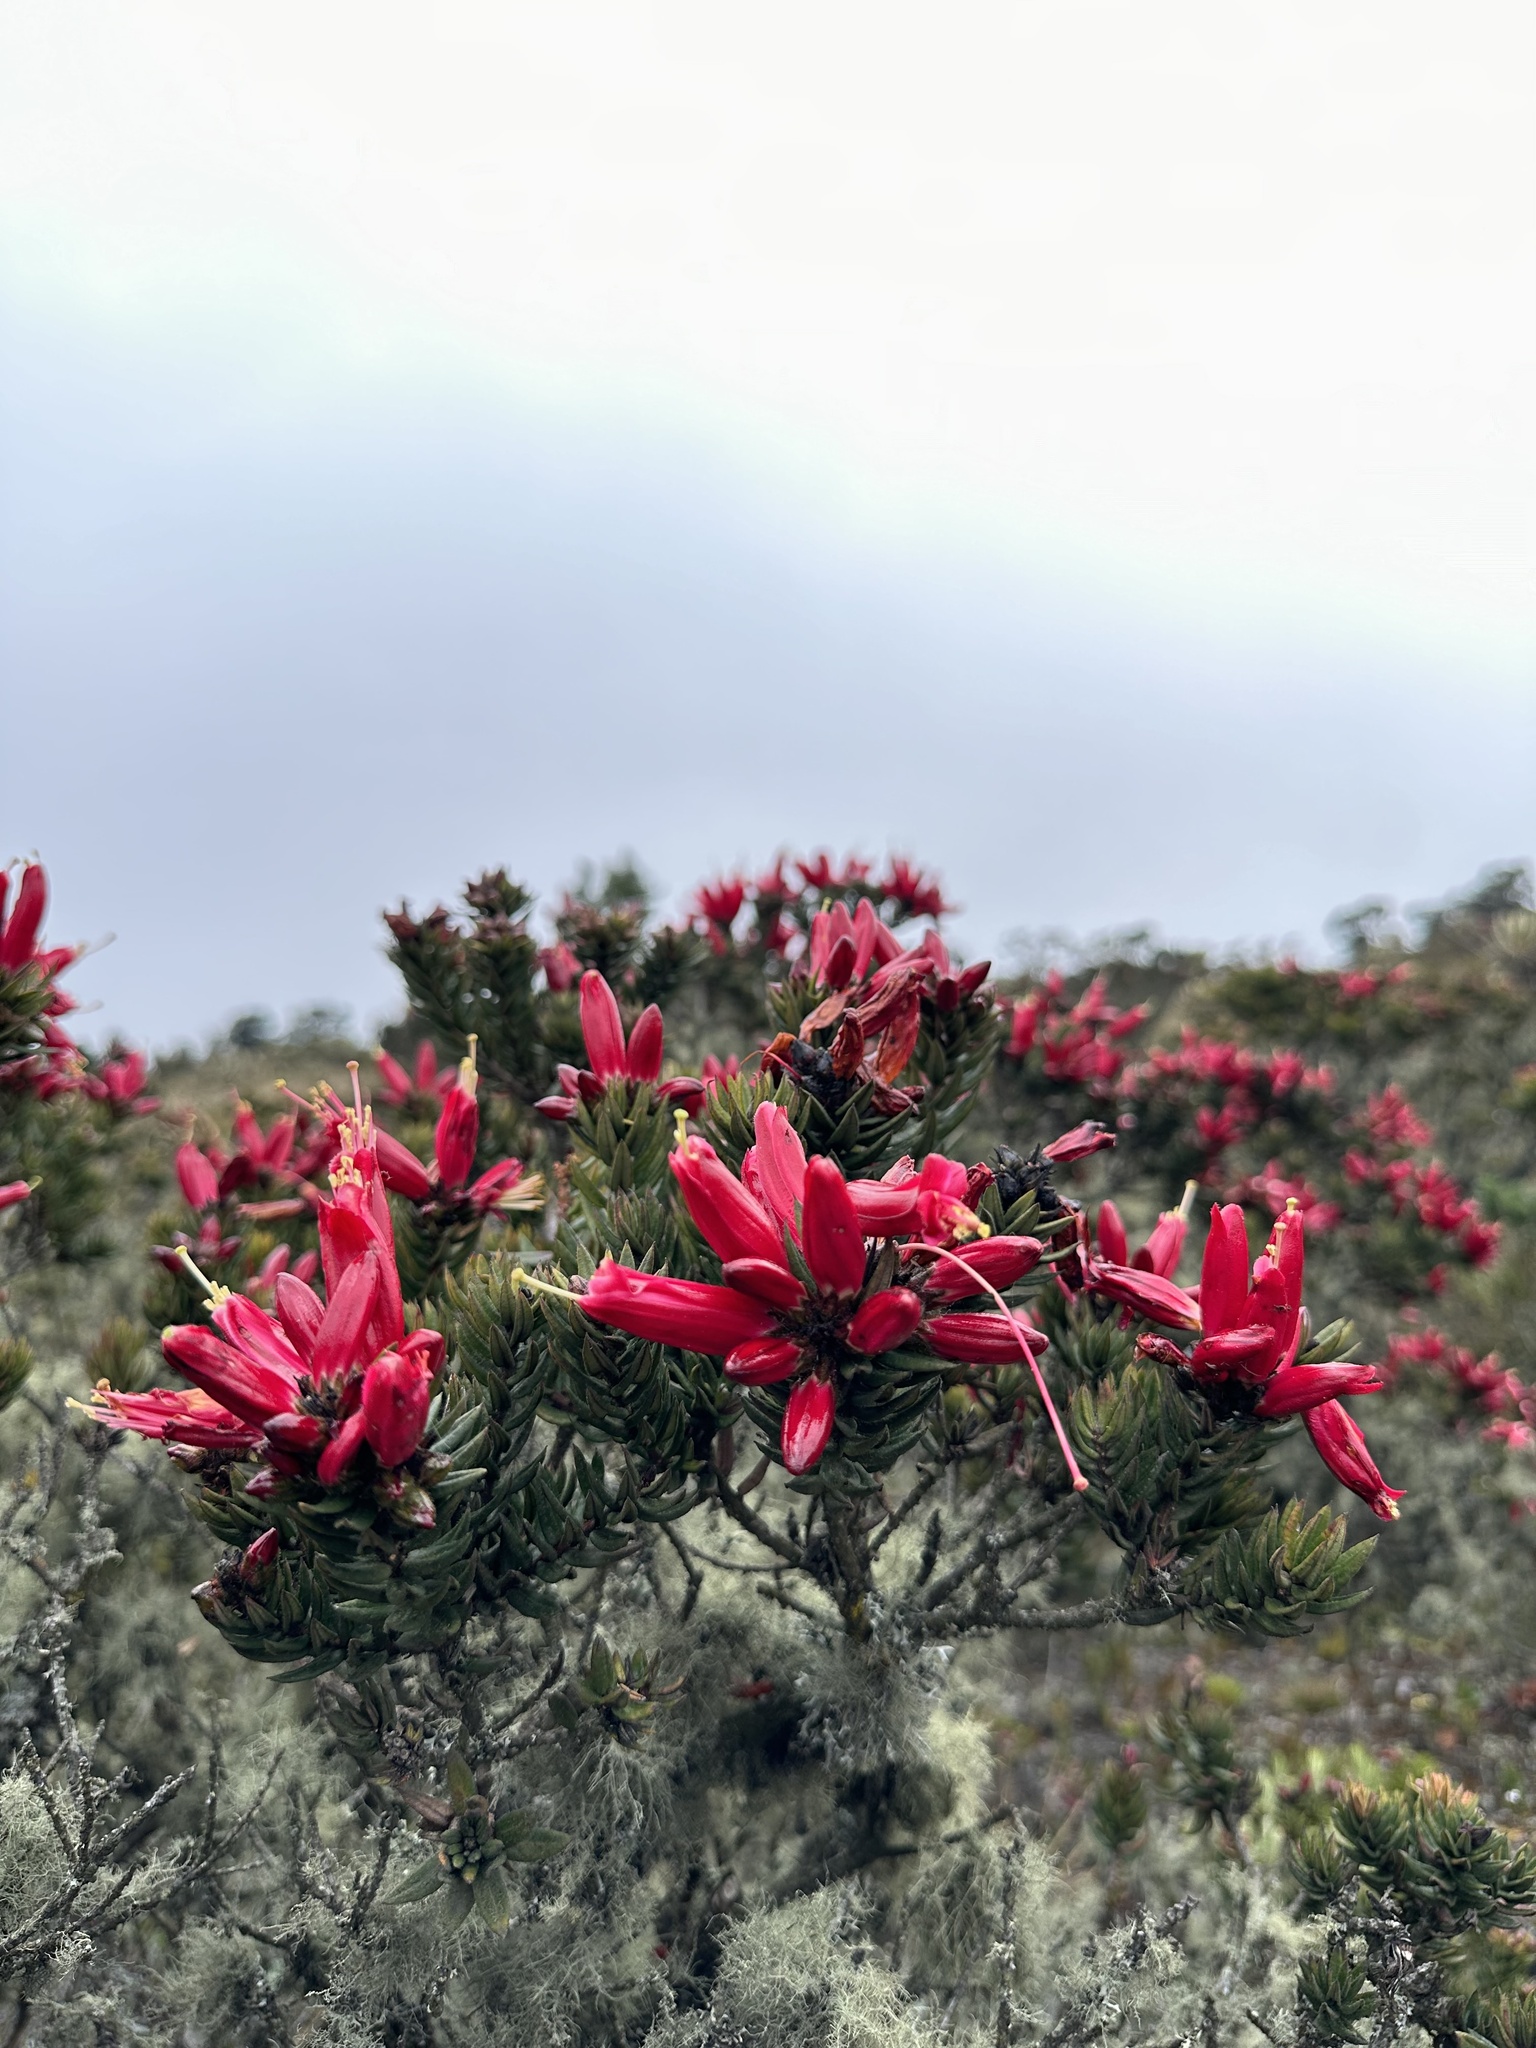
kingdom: Plantae
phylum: Tracheophyta
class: Magnoliopsida
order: Ericales
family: Ericaceae
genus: Bejaria
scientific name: Bejaria resinosa
